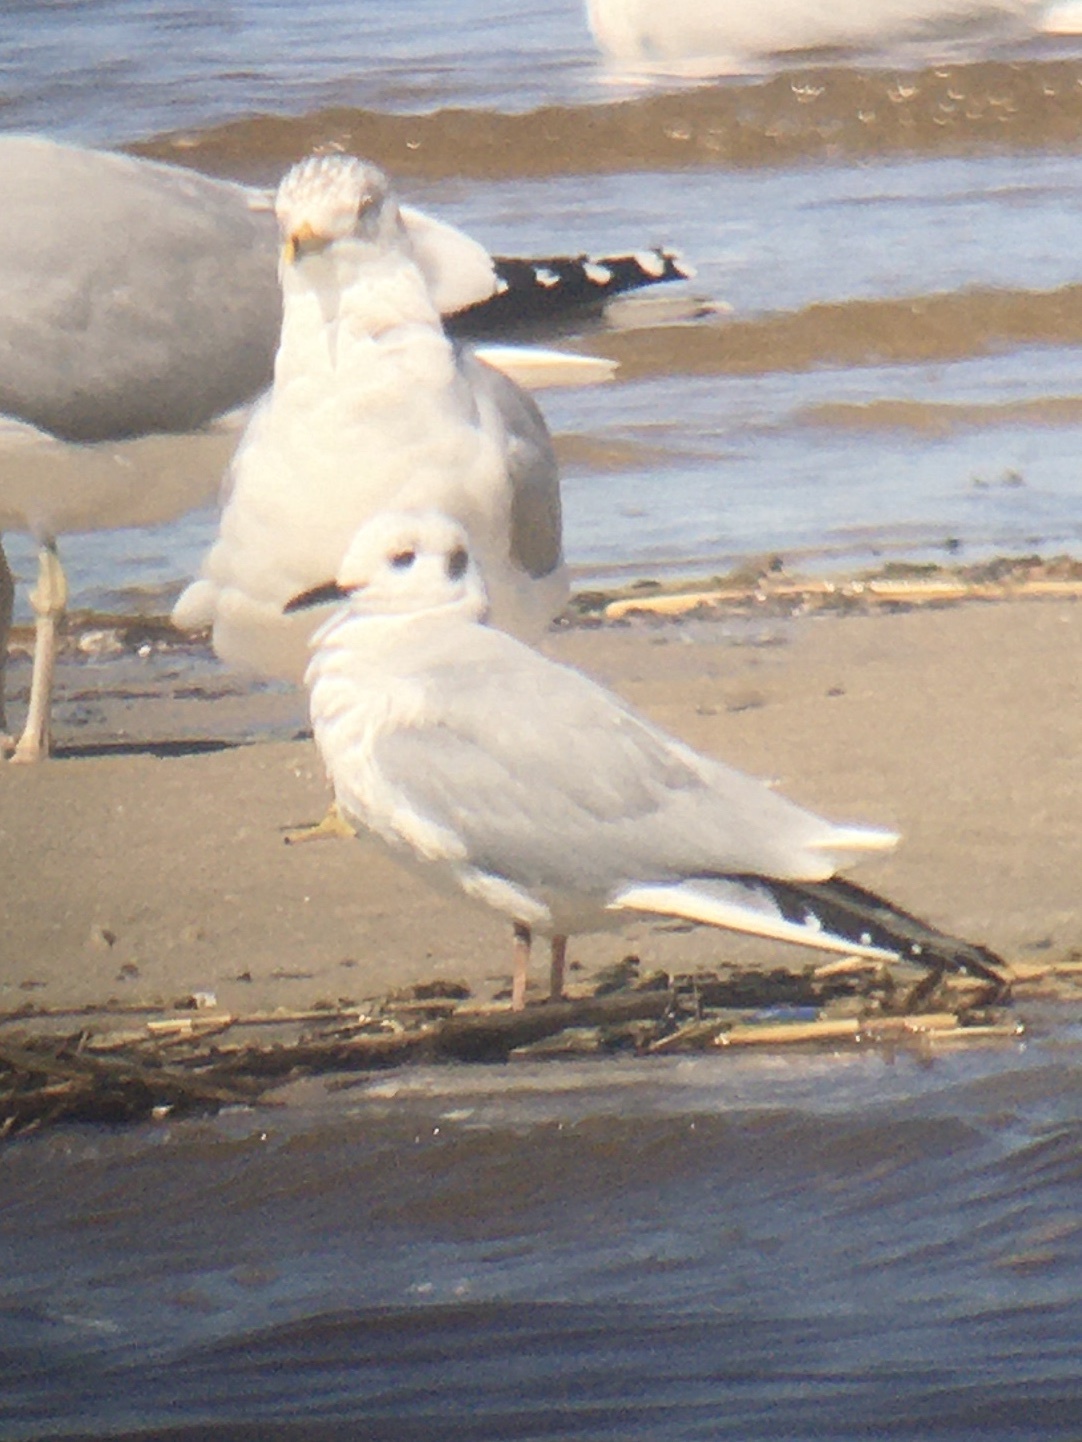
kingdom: Animalia
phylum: Chordata
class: Aves
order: Charadriiformes
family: Laridae
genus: Chroicocephalus
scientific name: Chroicocephalus philadelphia
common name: Bonaparte's gull
